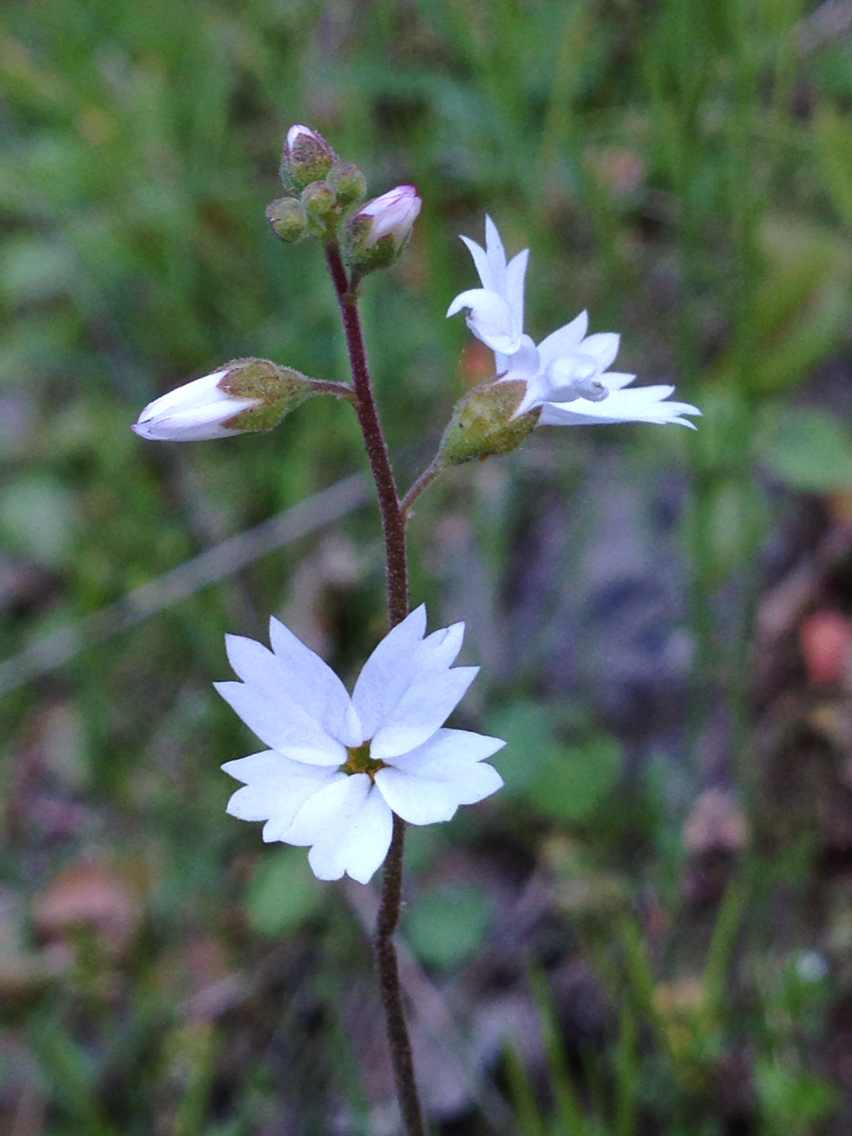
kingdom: Plantae
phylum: Tracheophyta
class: Magnoliopsida
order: Saxifragales
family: Saxifragaceae
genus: Lithophragma
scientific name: Lithophragma affine
